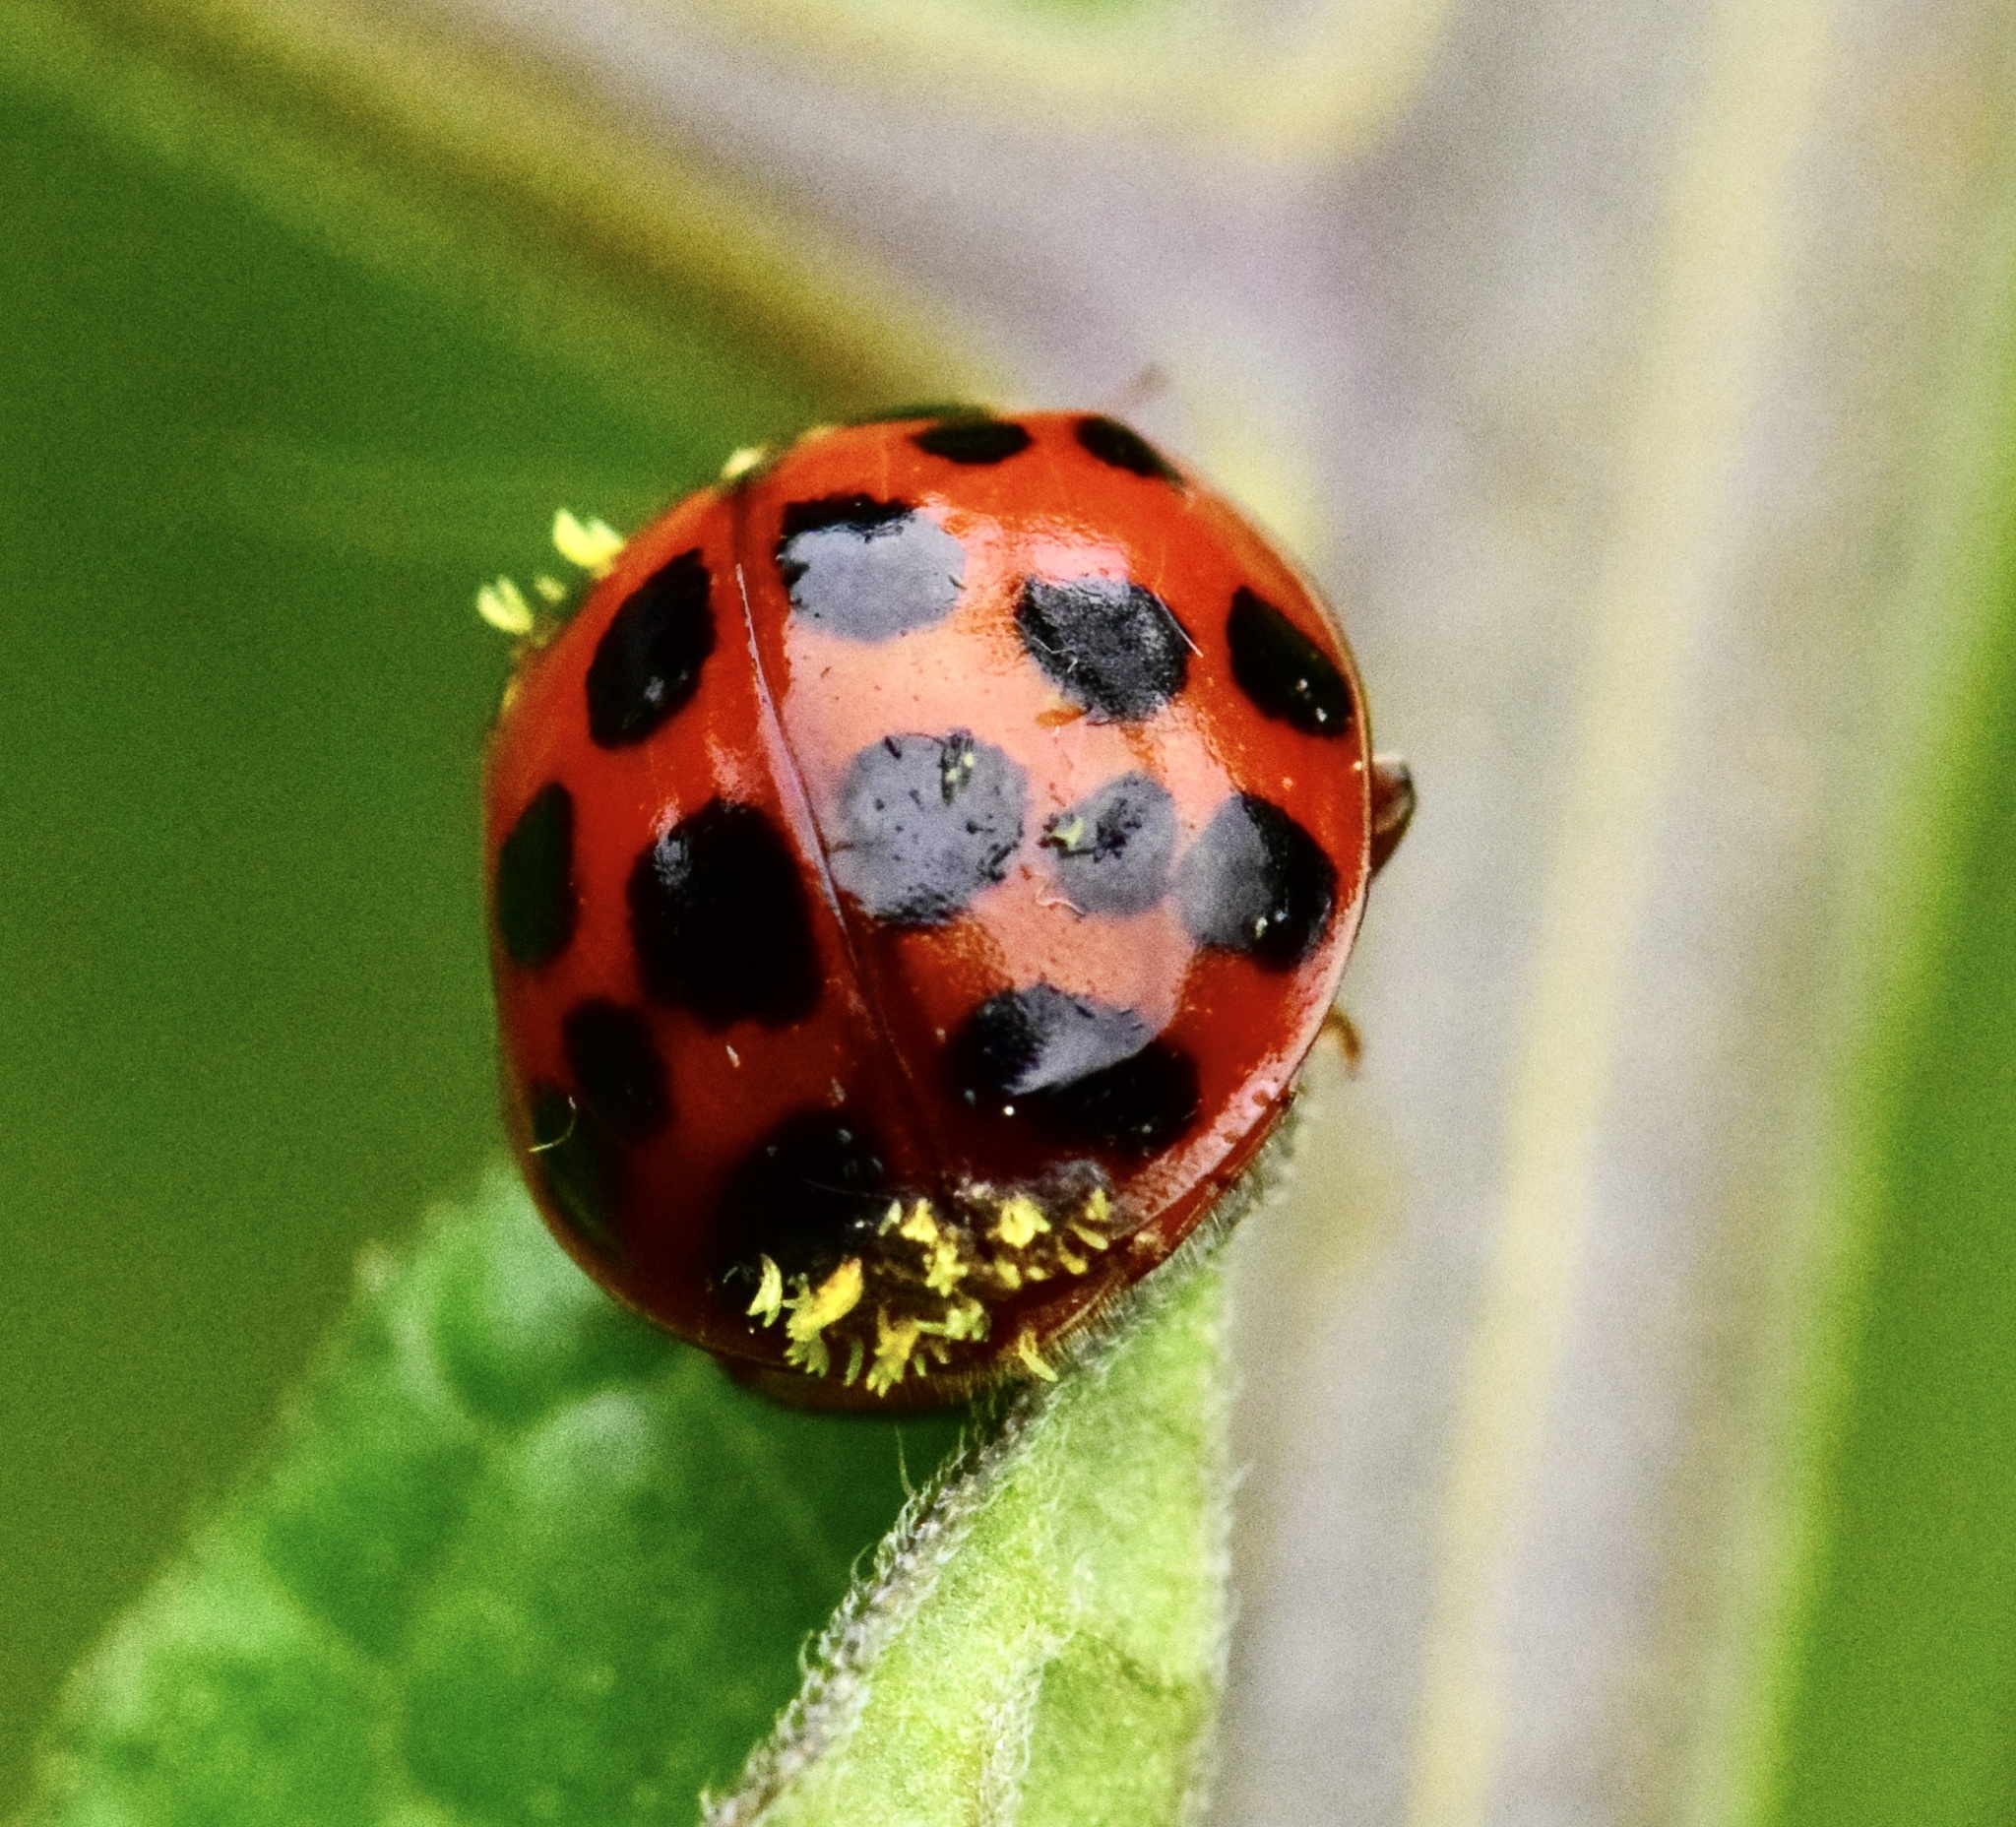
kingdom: Animalia
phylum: Arthropoda
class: Insecta
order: Coleoptera
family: Coccinellidae
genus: Harmonia
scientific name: Harmonia axyridis
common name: Harlequin ladybird
